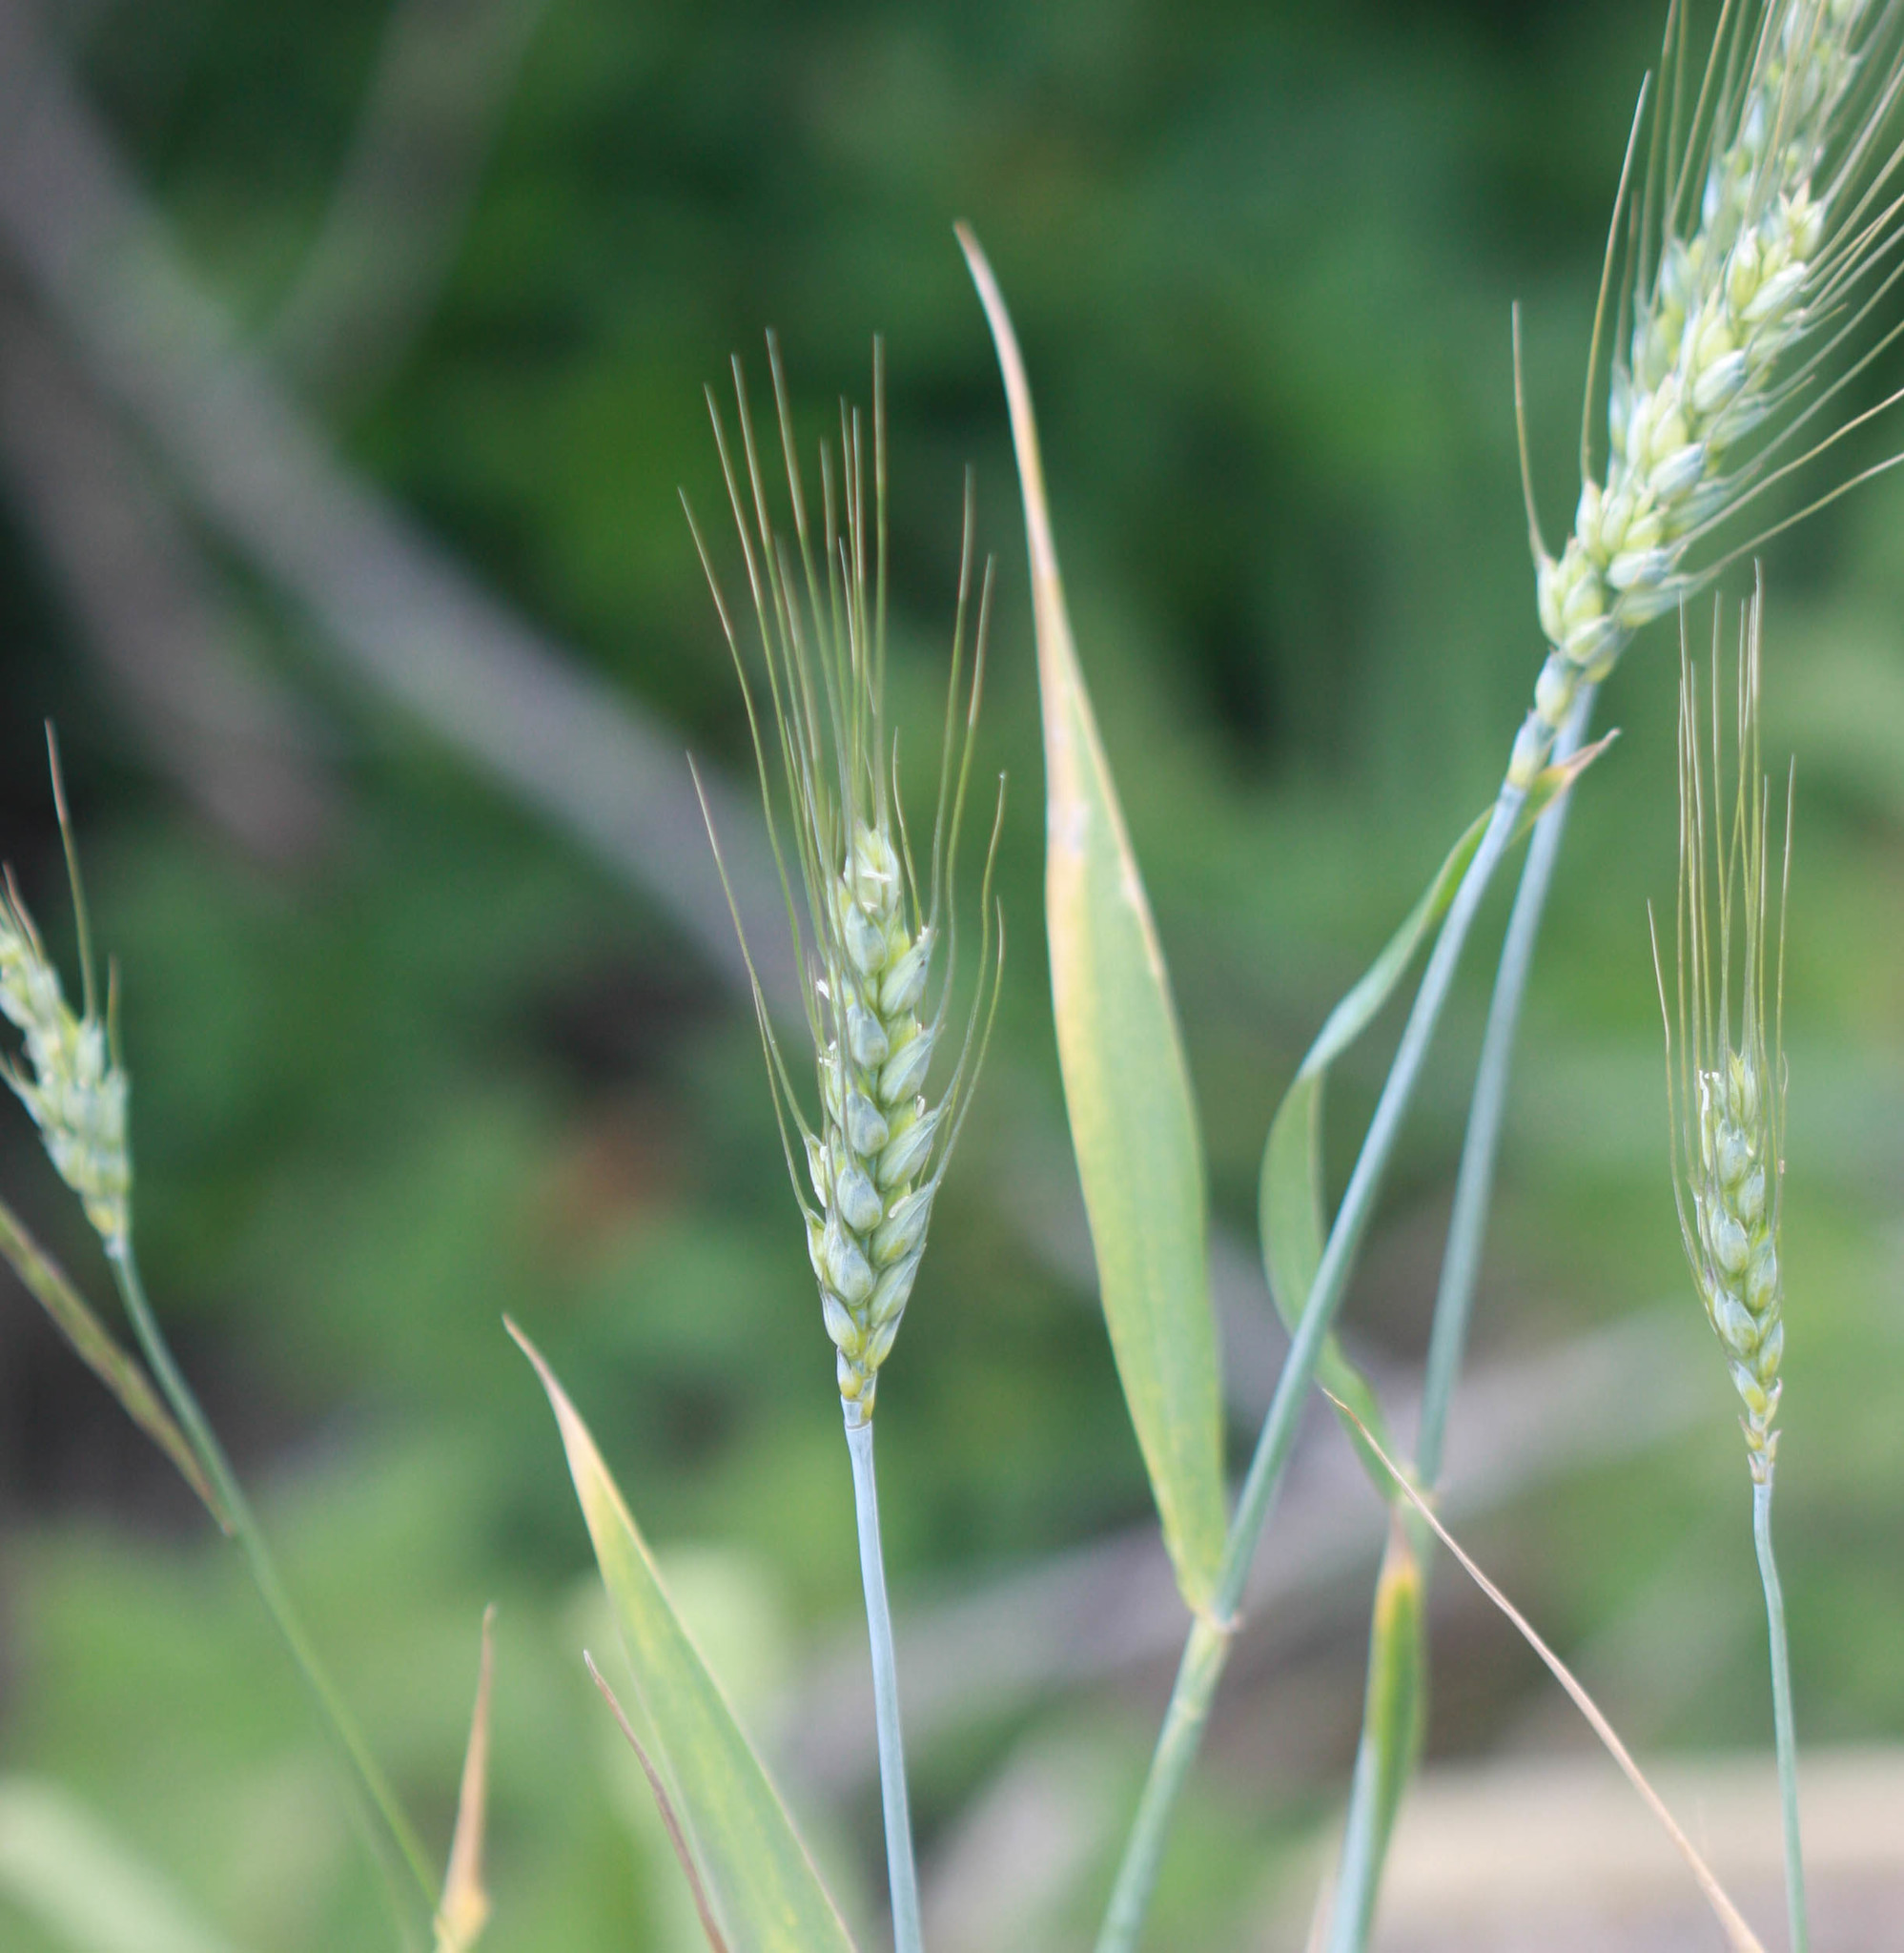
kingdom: Plantae
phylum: Tracheophyta
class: Liliopsida
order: Poales
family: Poaceae
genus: Triticum
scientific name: Triticum aestivum
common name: Common wheat
